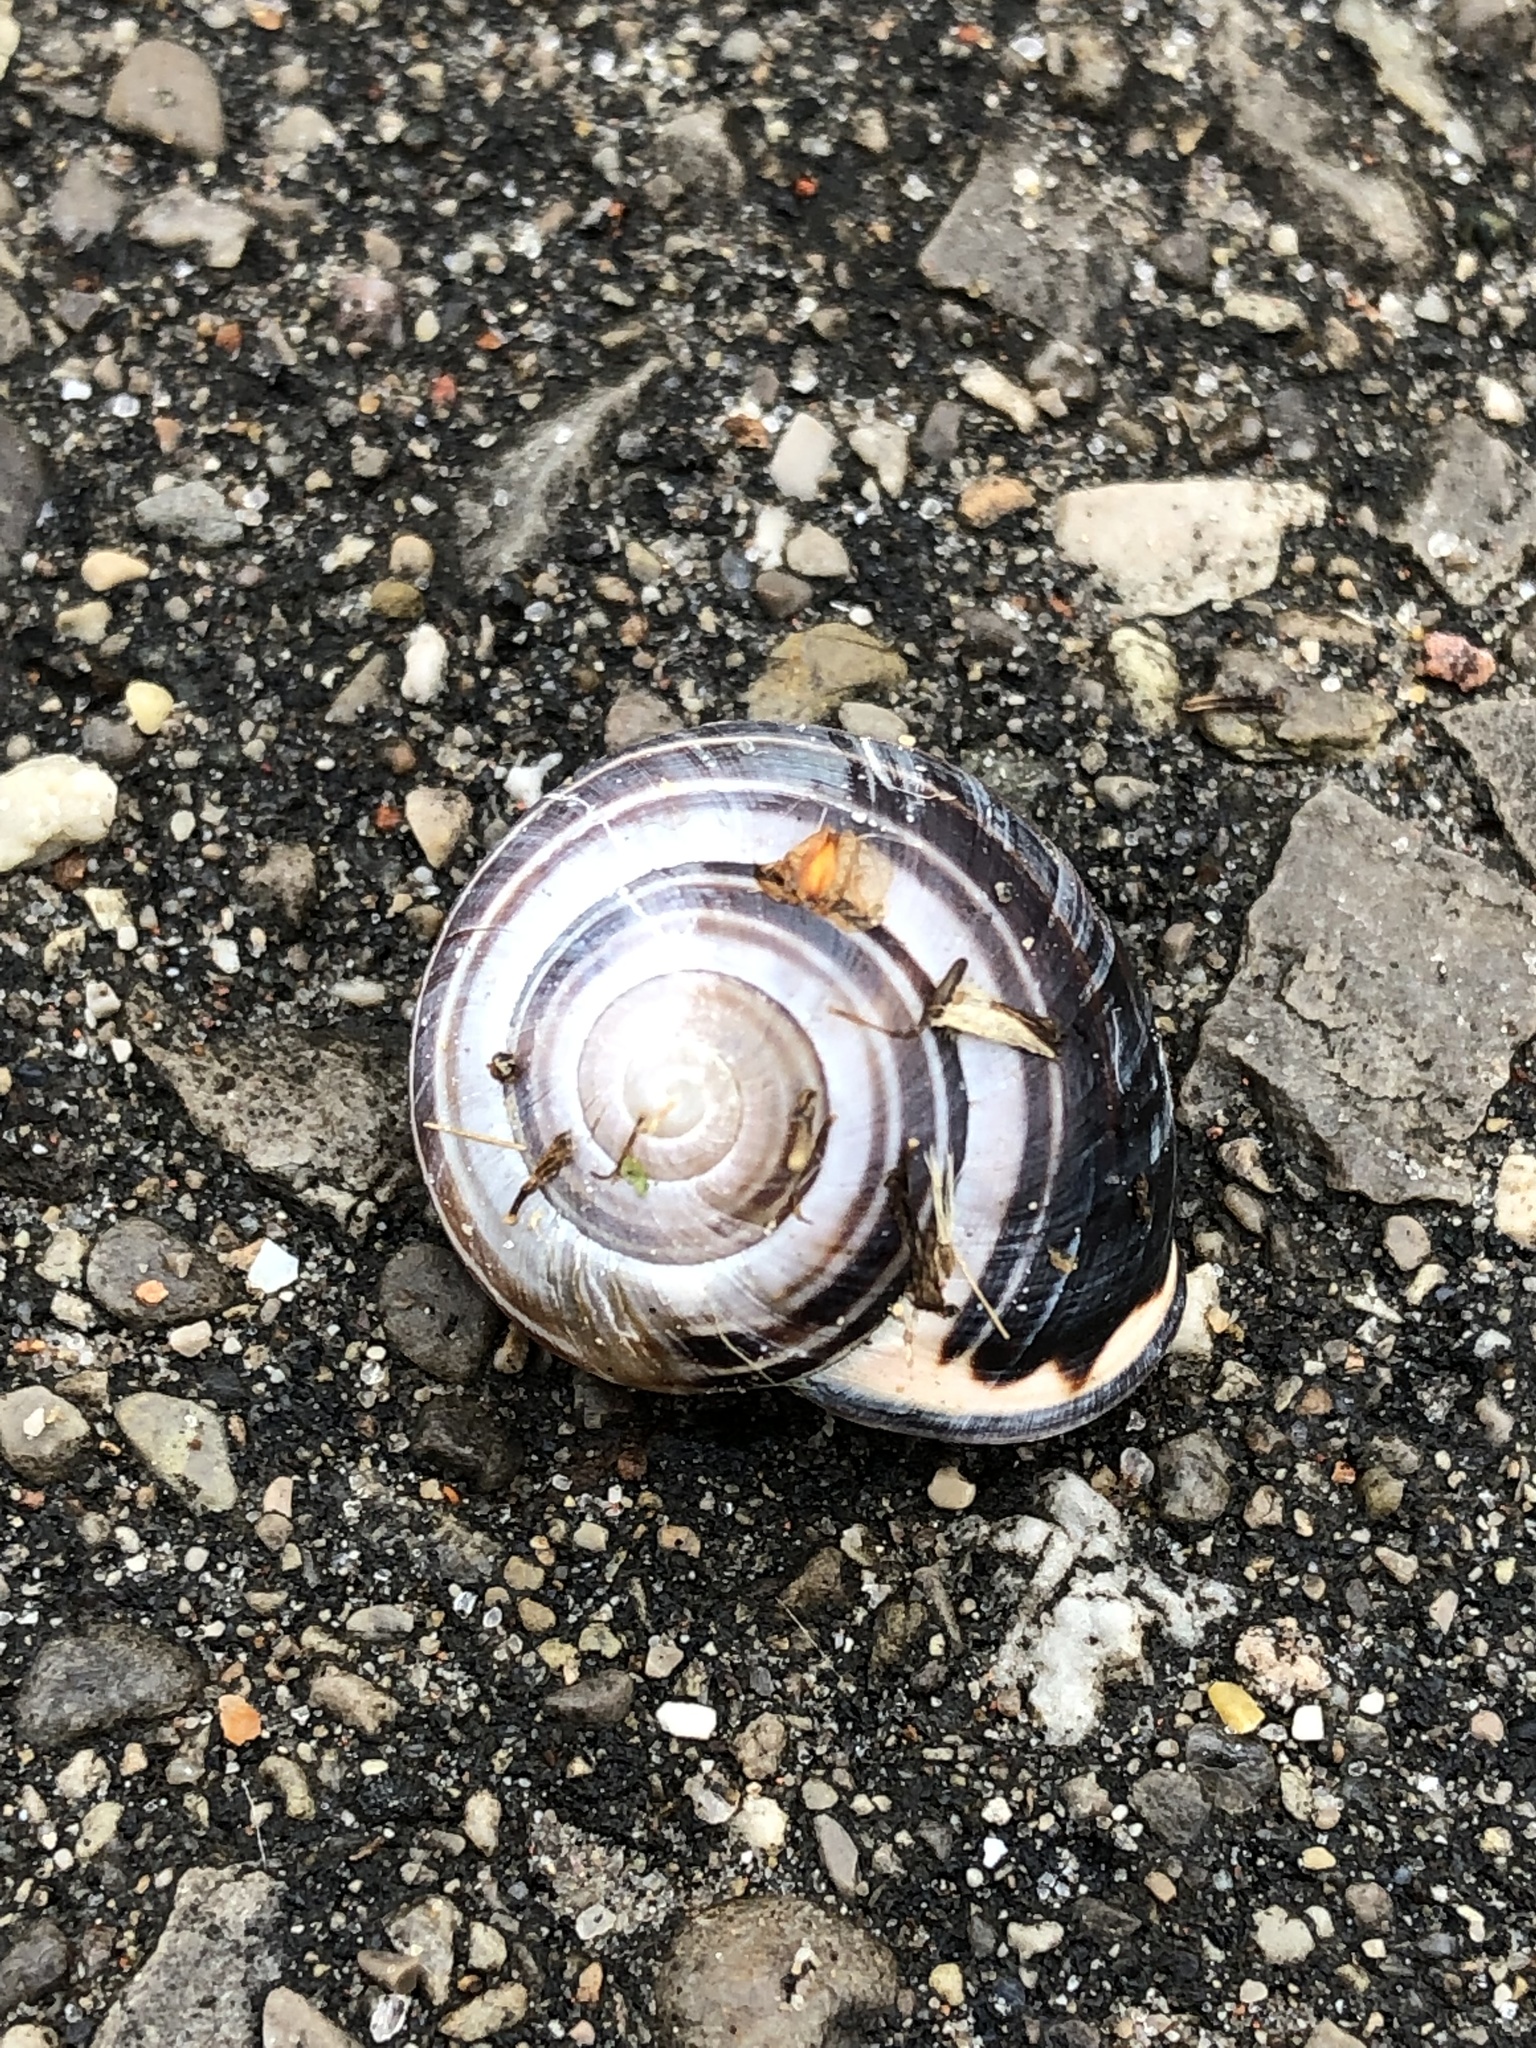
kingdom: Animalia
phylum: Mollusca
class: Gastropoda
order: Stylommatophora
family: Helicidae
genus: Cepaea
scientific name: Cepaea nemoralis
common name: Grovesnail
